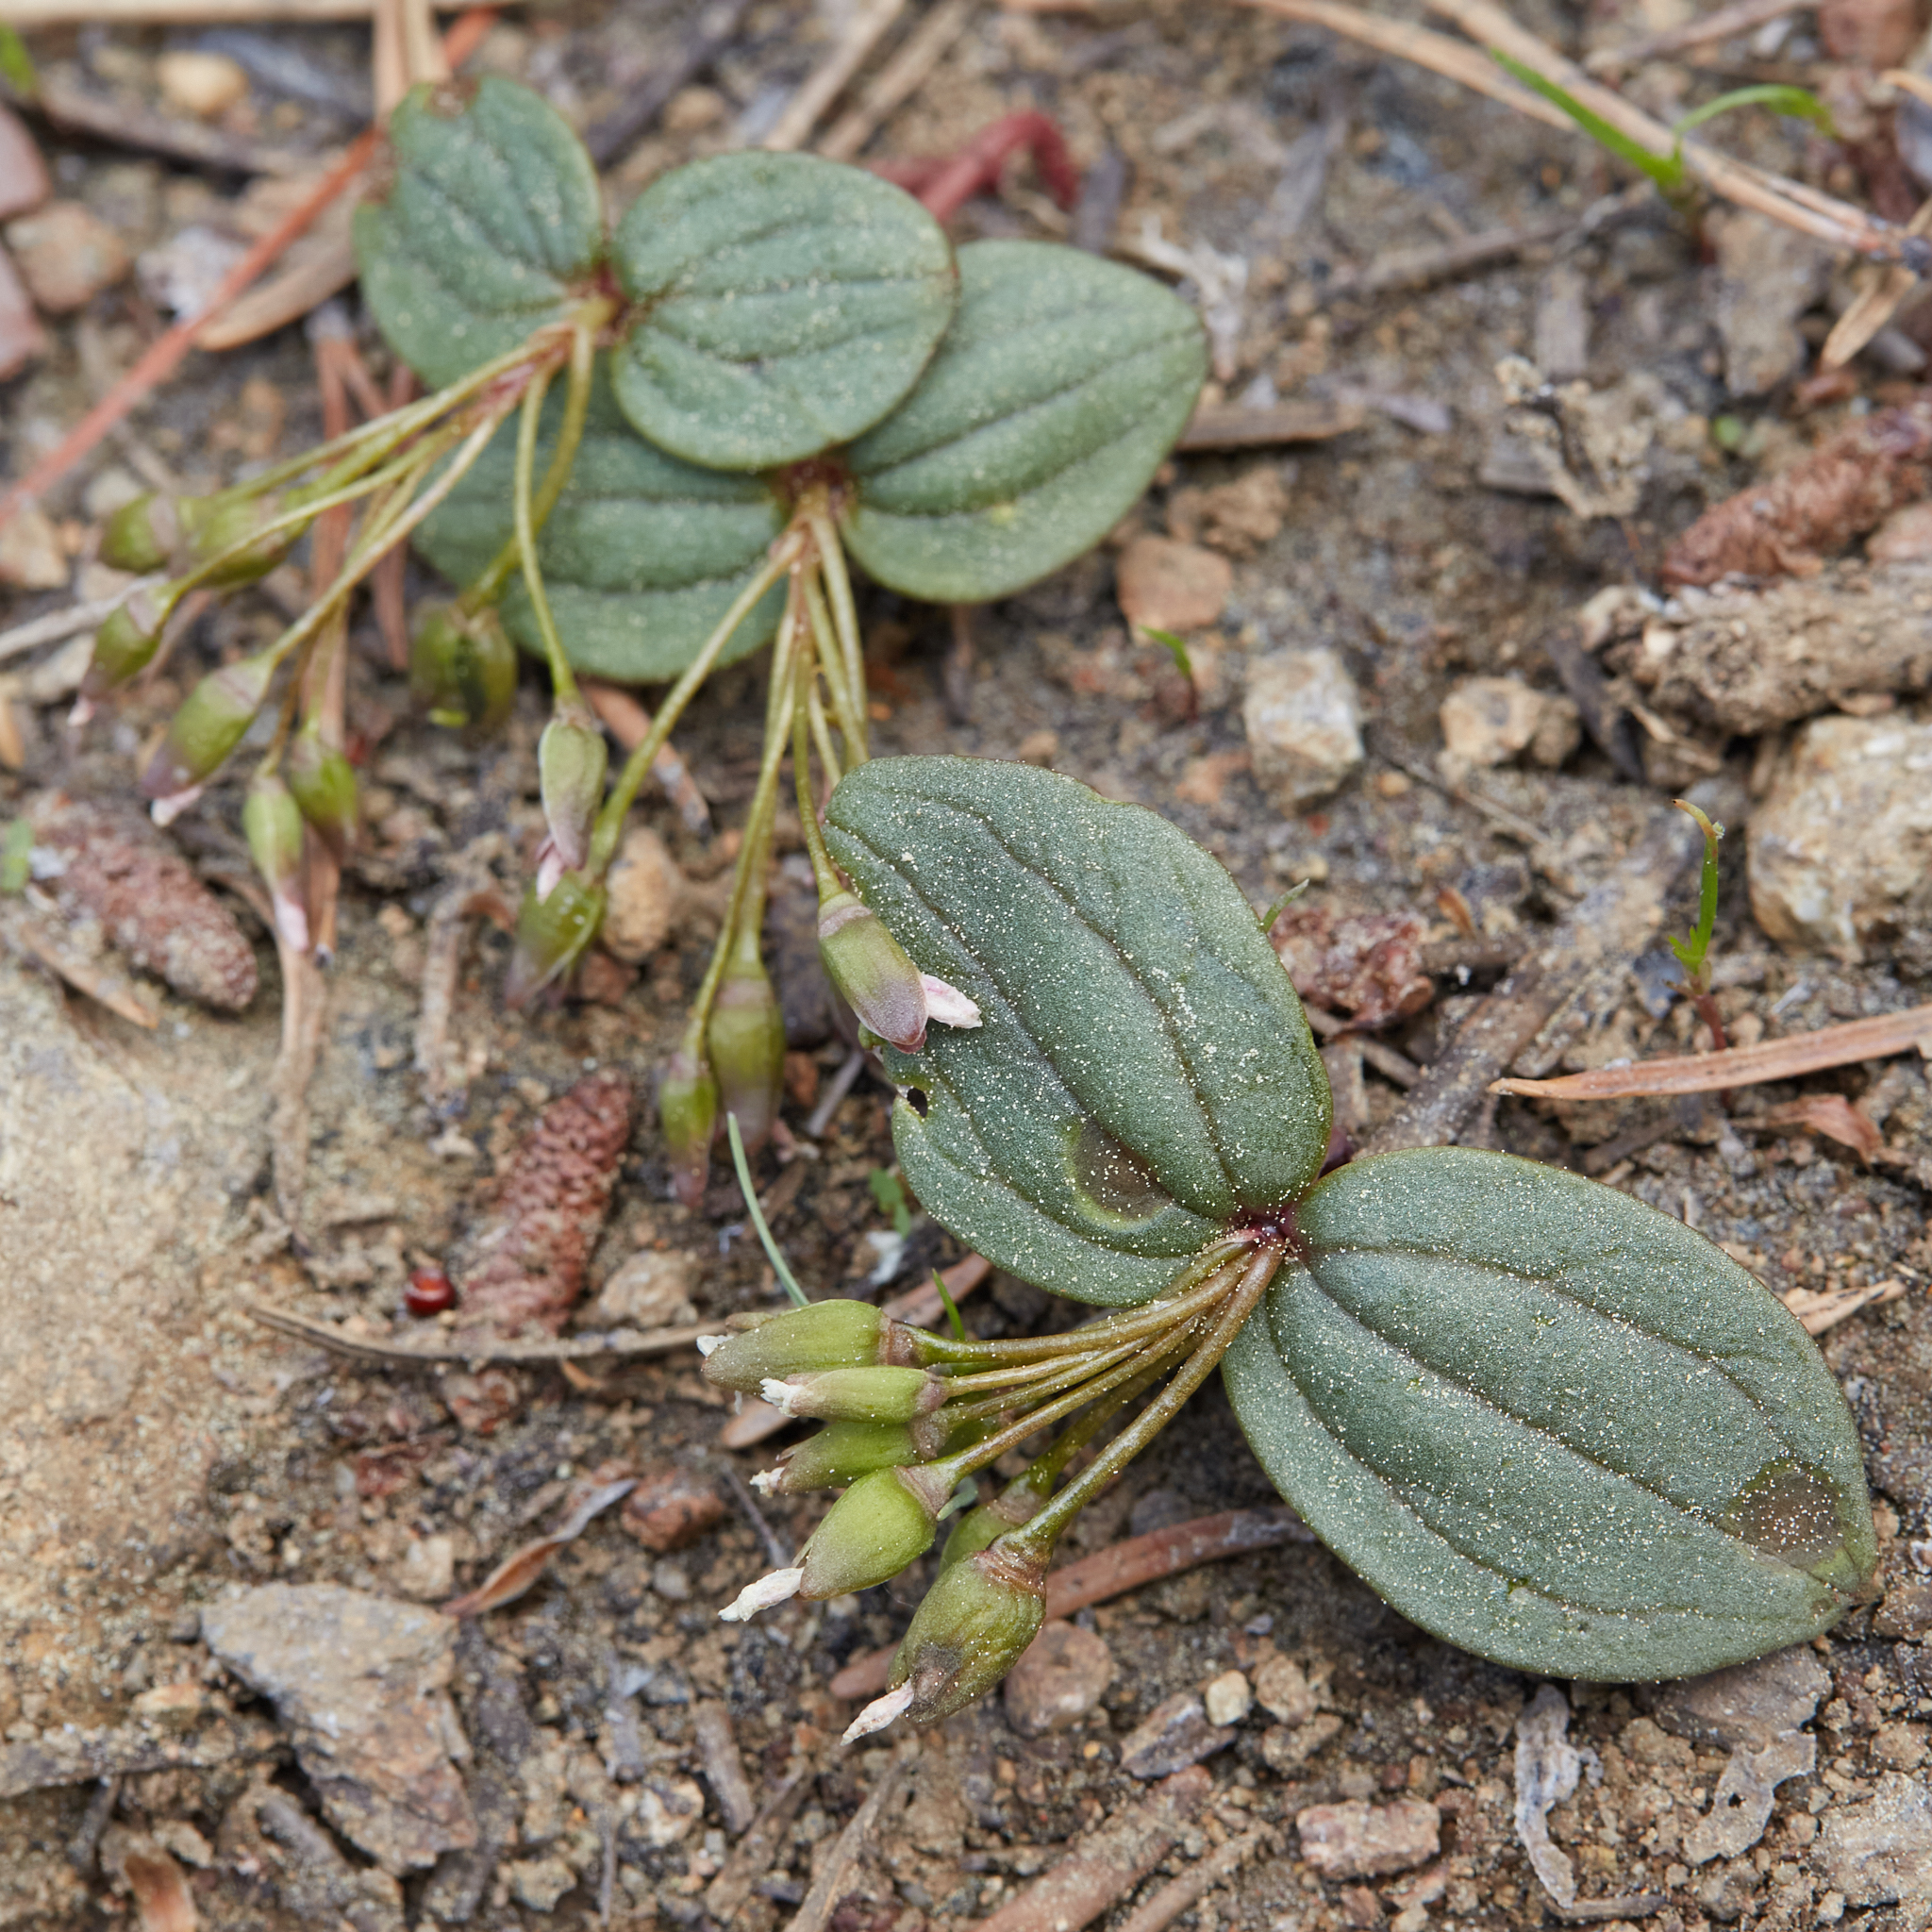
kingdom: Plantae
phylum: Tracheophyta
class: Magnoliopsida
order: Caryophyllales
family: Montiaceae
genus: Claytonia
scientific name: Claytonia obovata
